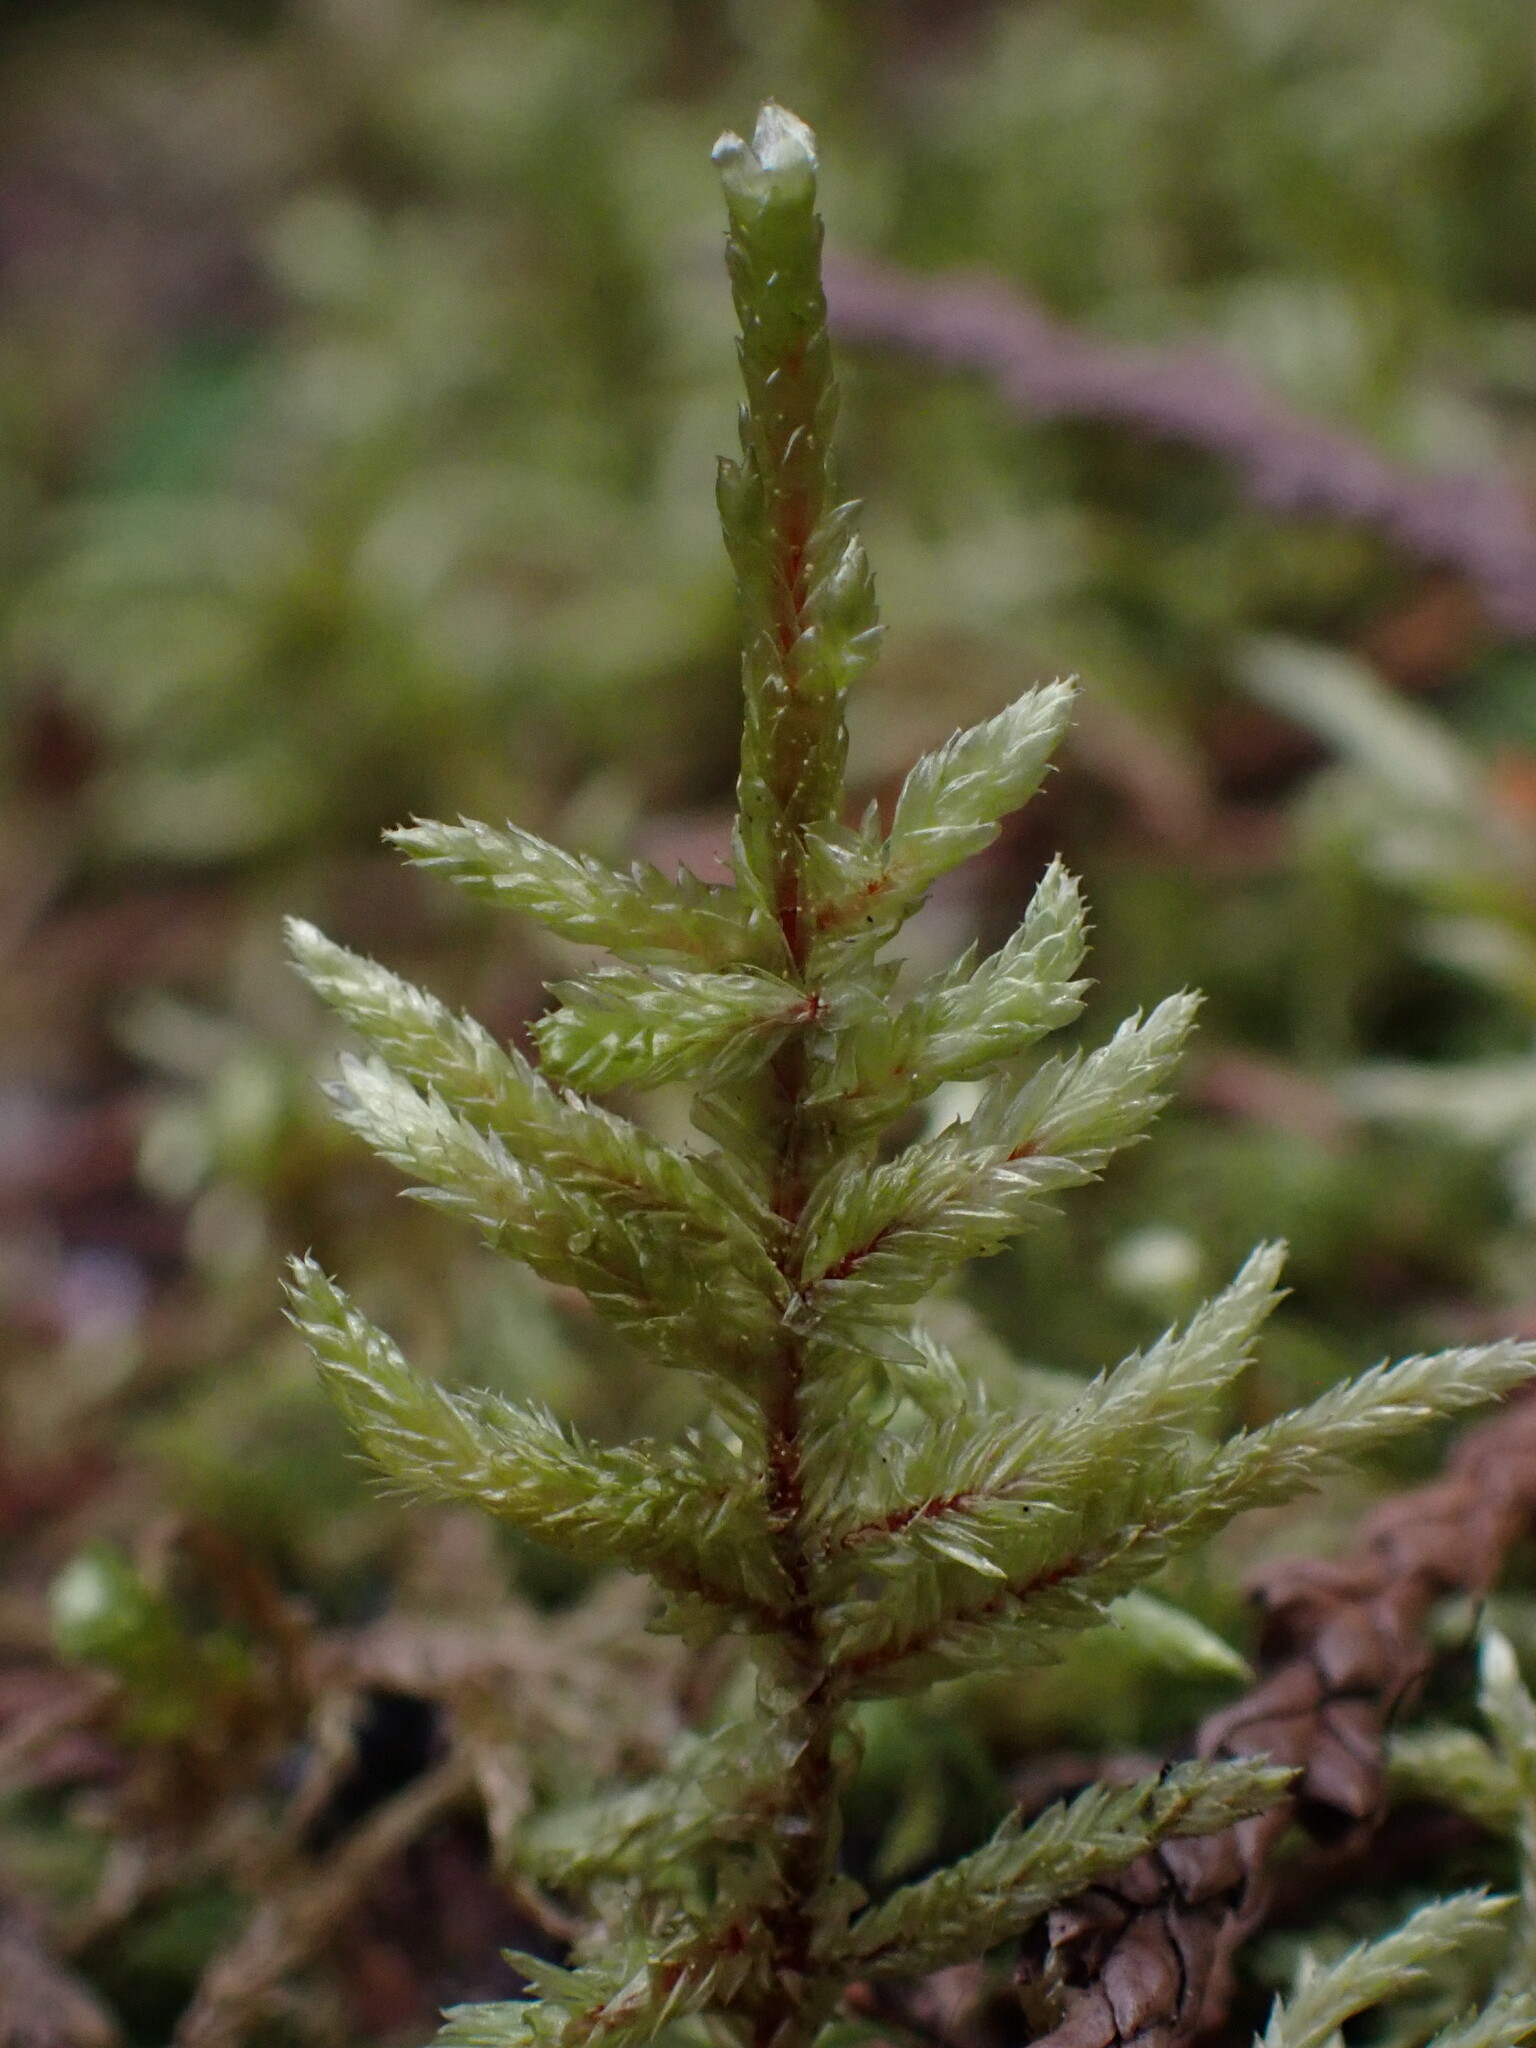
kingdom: Plantae
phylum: Bryophyta
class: Bryopsida
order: Hypnales
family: Hylocomiaceae
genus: Pleurozium
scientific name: Pleurozium schreberi
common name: Red-stemmed feather moss
